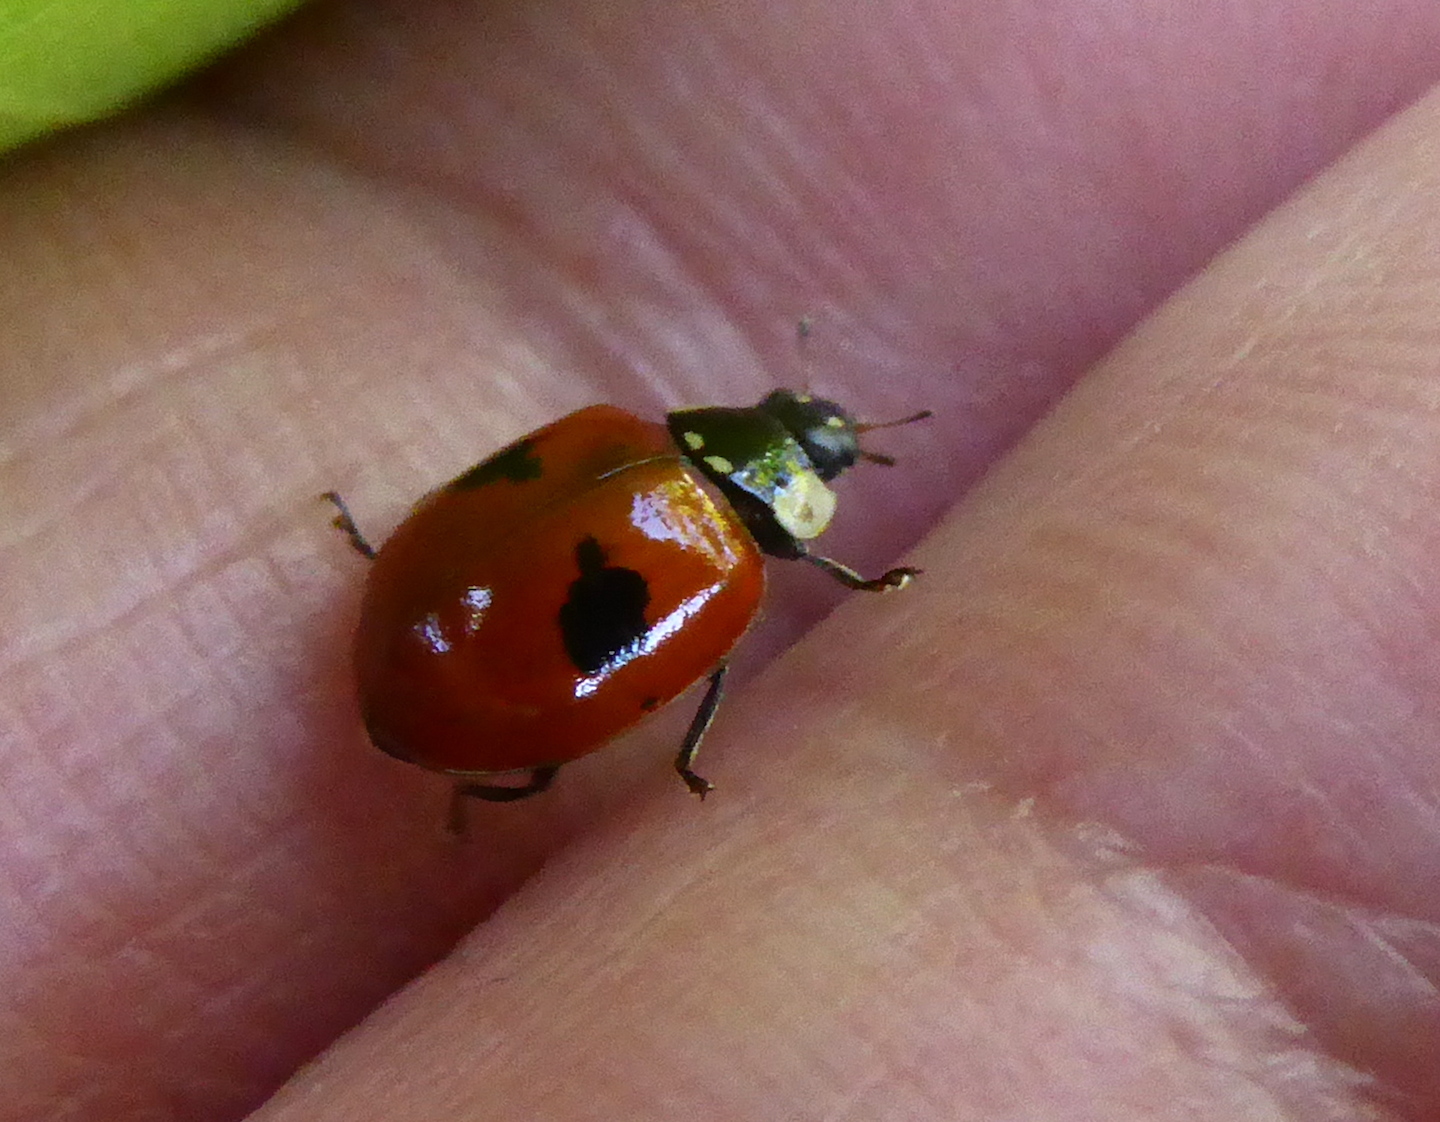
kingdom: Animalia
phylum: Arthropoda
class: Insecta
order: Coleoptera
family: Coccinellidae
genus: Adalia
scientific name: Adalia bipunctata
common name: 2-spot ladybird
